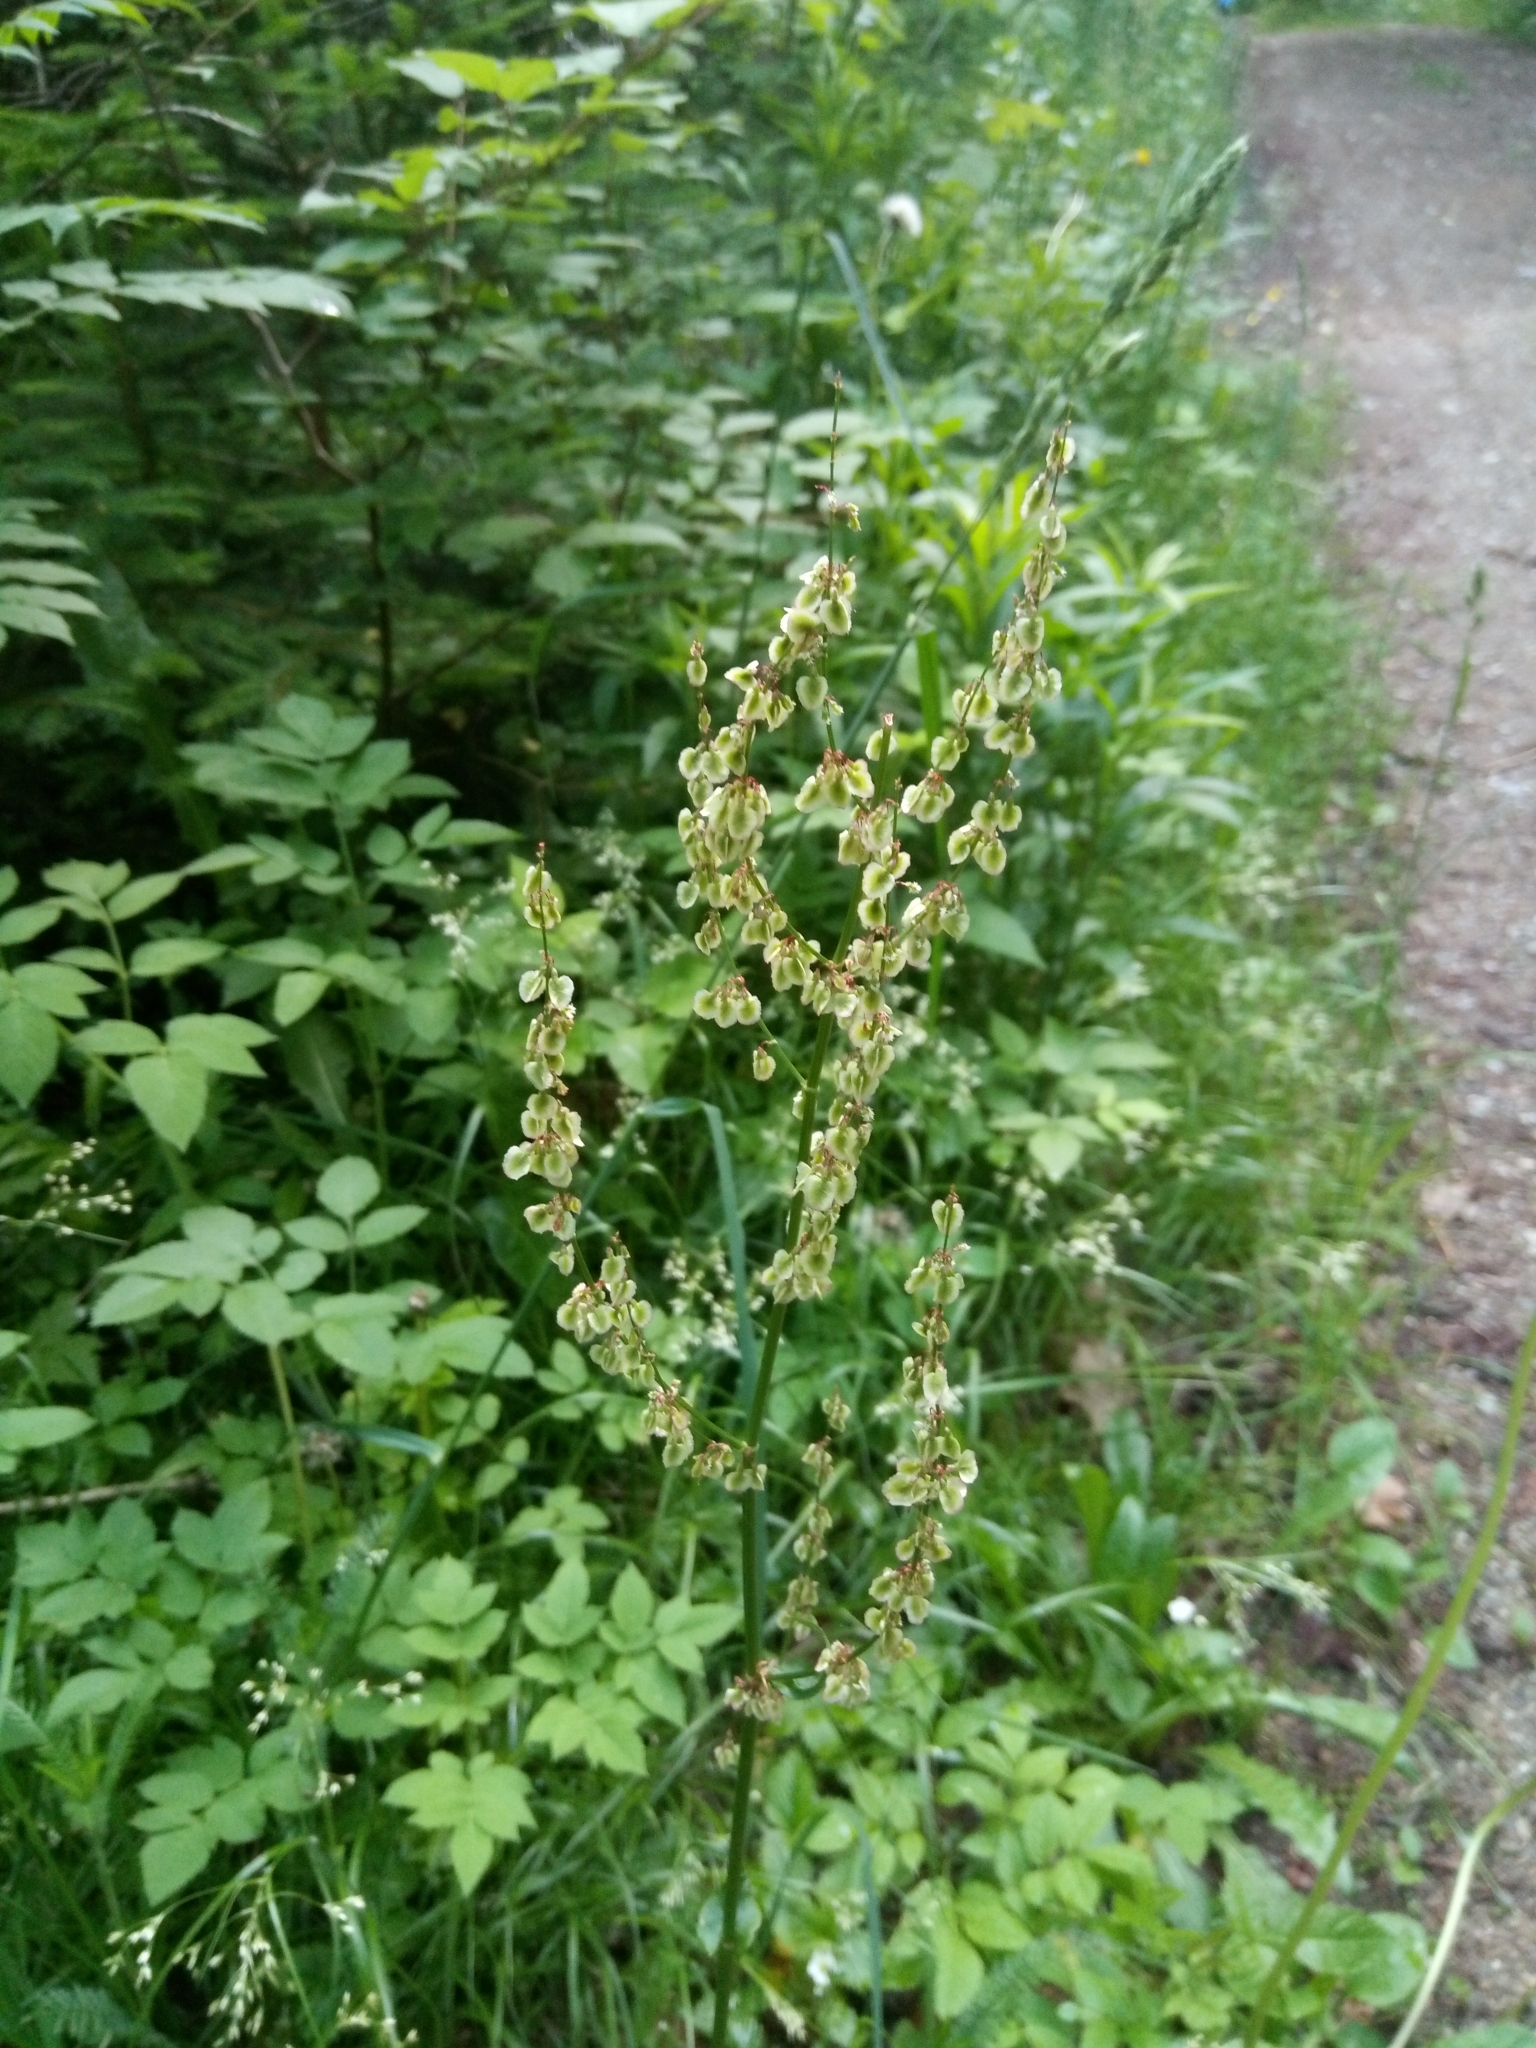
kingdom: Plantae
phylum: Tracheophyta
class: Magnoliopsida
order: Caryophyllales
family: Polygonaceae
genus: Rumex
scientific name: Rumex acetosa
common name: Garden sorrel
